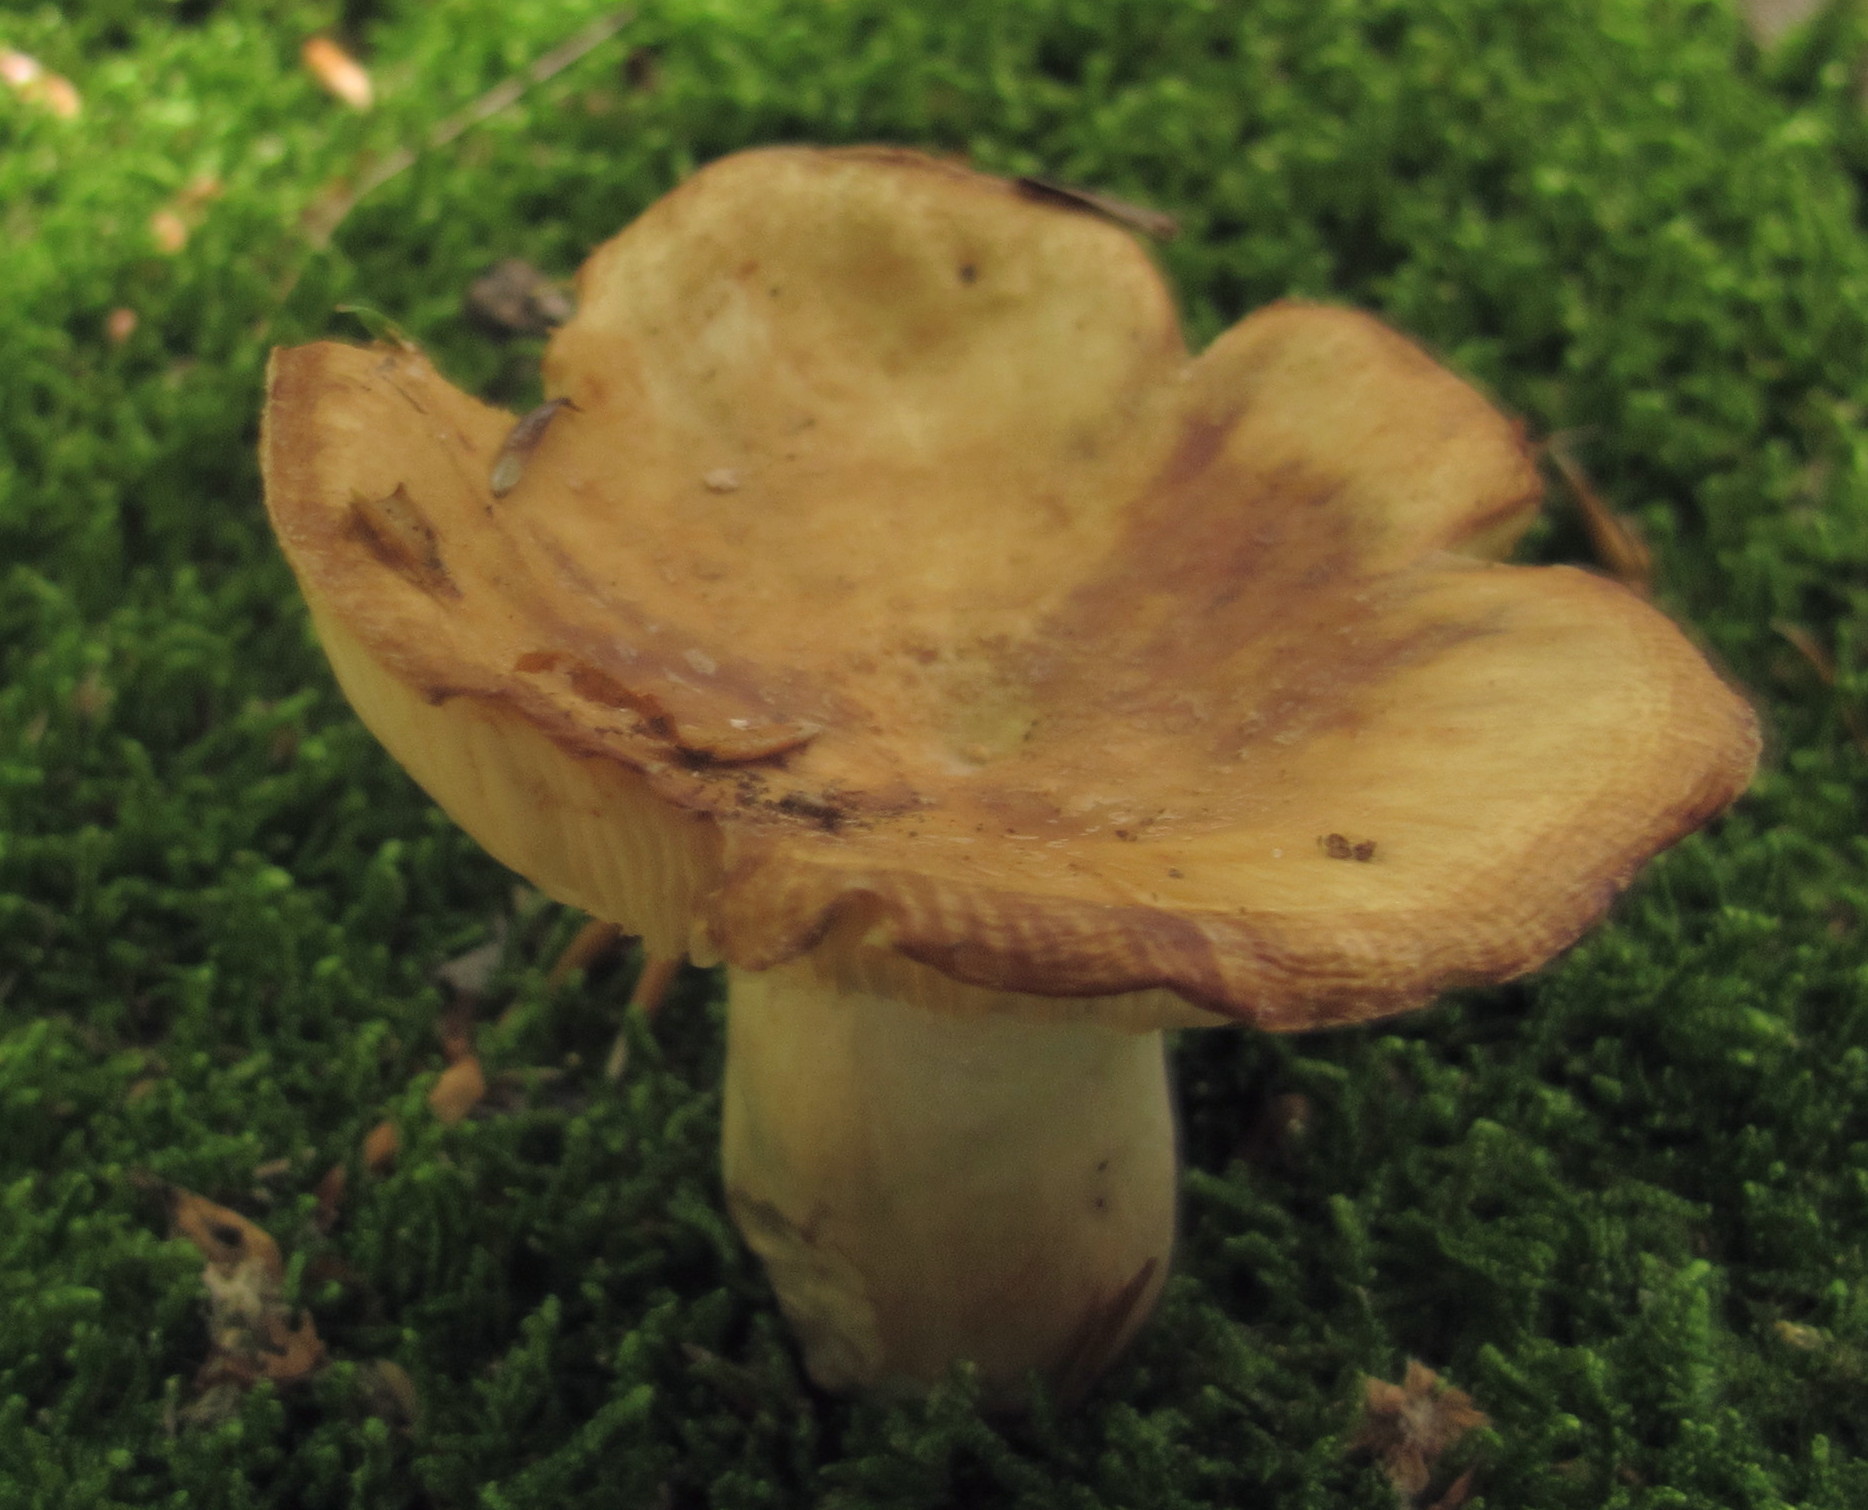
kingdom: Fungi
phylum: Basidiomycota
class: Agaricomycetes
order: Russulales
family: Russulaceae
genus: Russula
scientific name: Russula granulata
